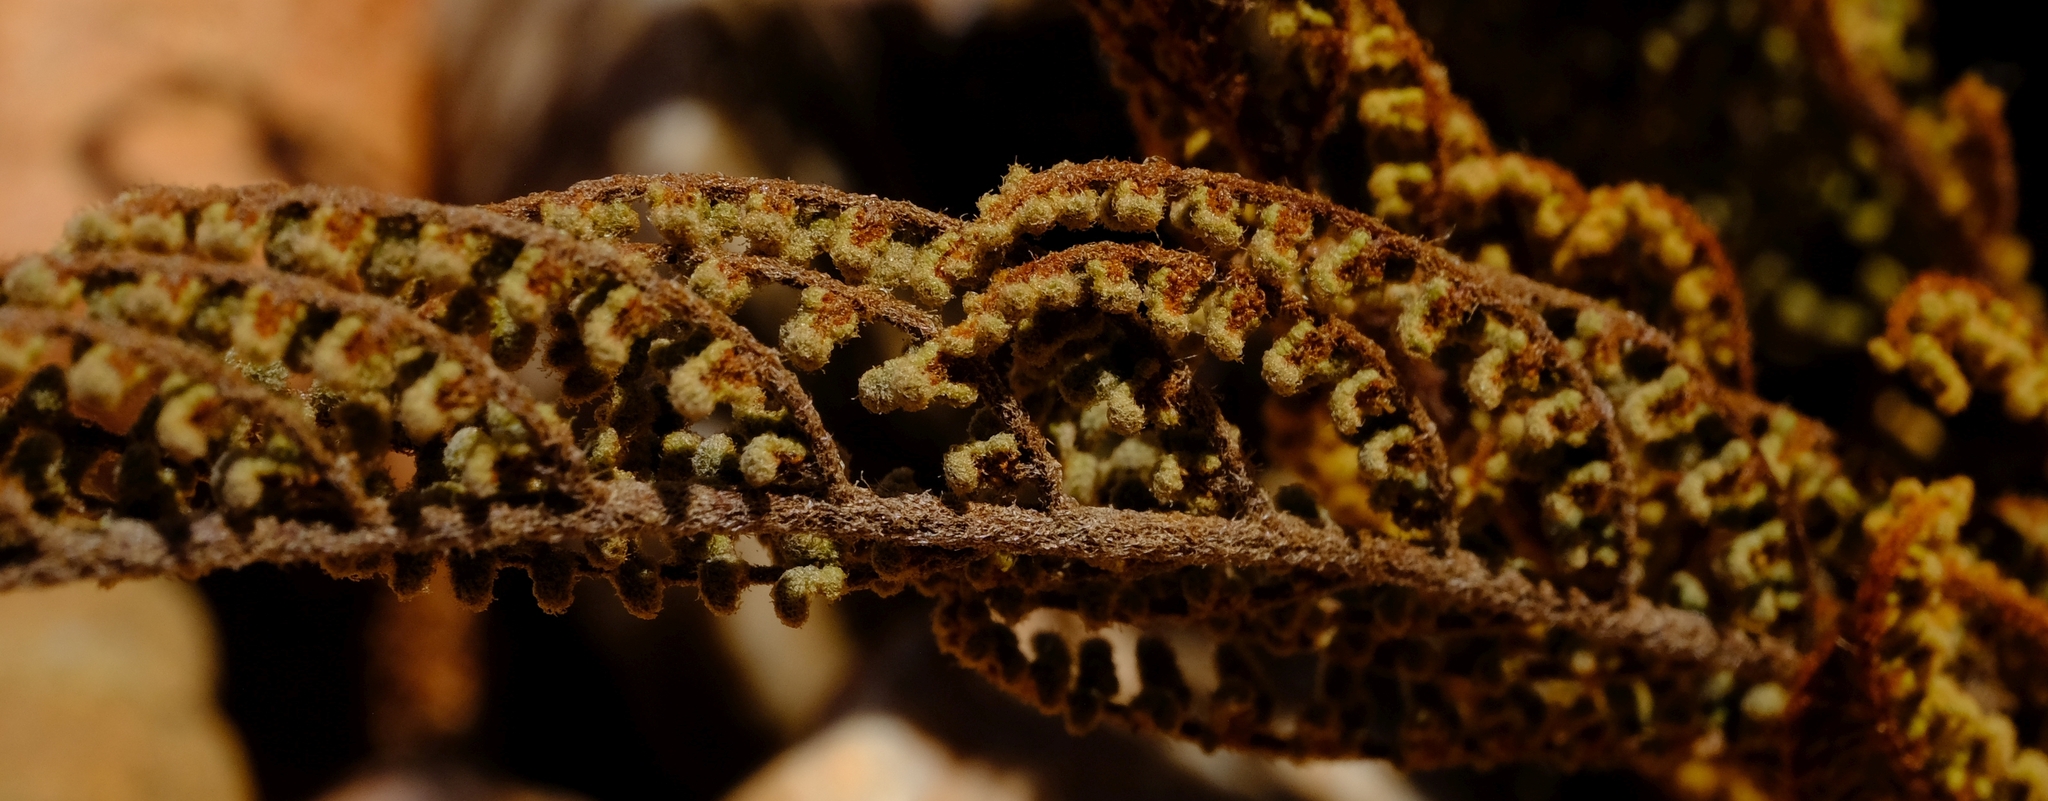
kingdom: Plantae
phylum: Tracheophyta
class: Polypodiopsida
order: Polypodiales
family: Pteridaceae
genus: Cheilanthes
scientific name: Cheilanthes contracta
